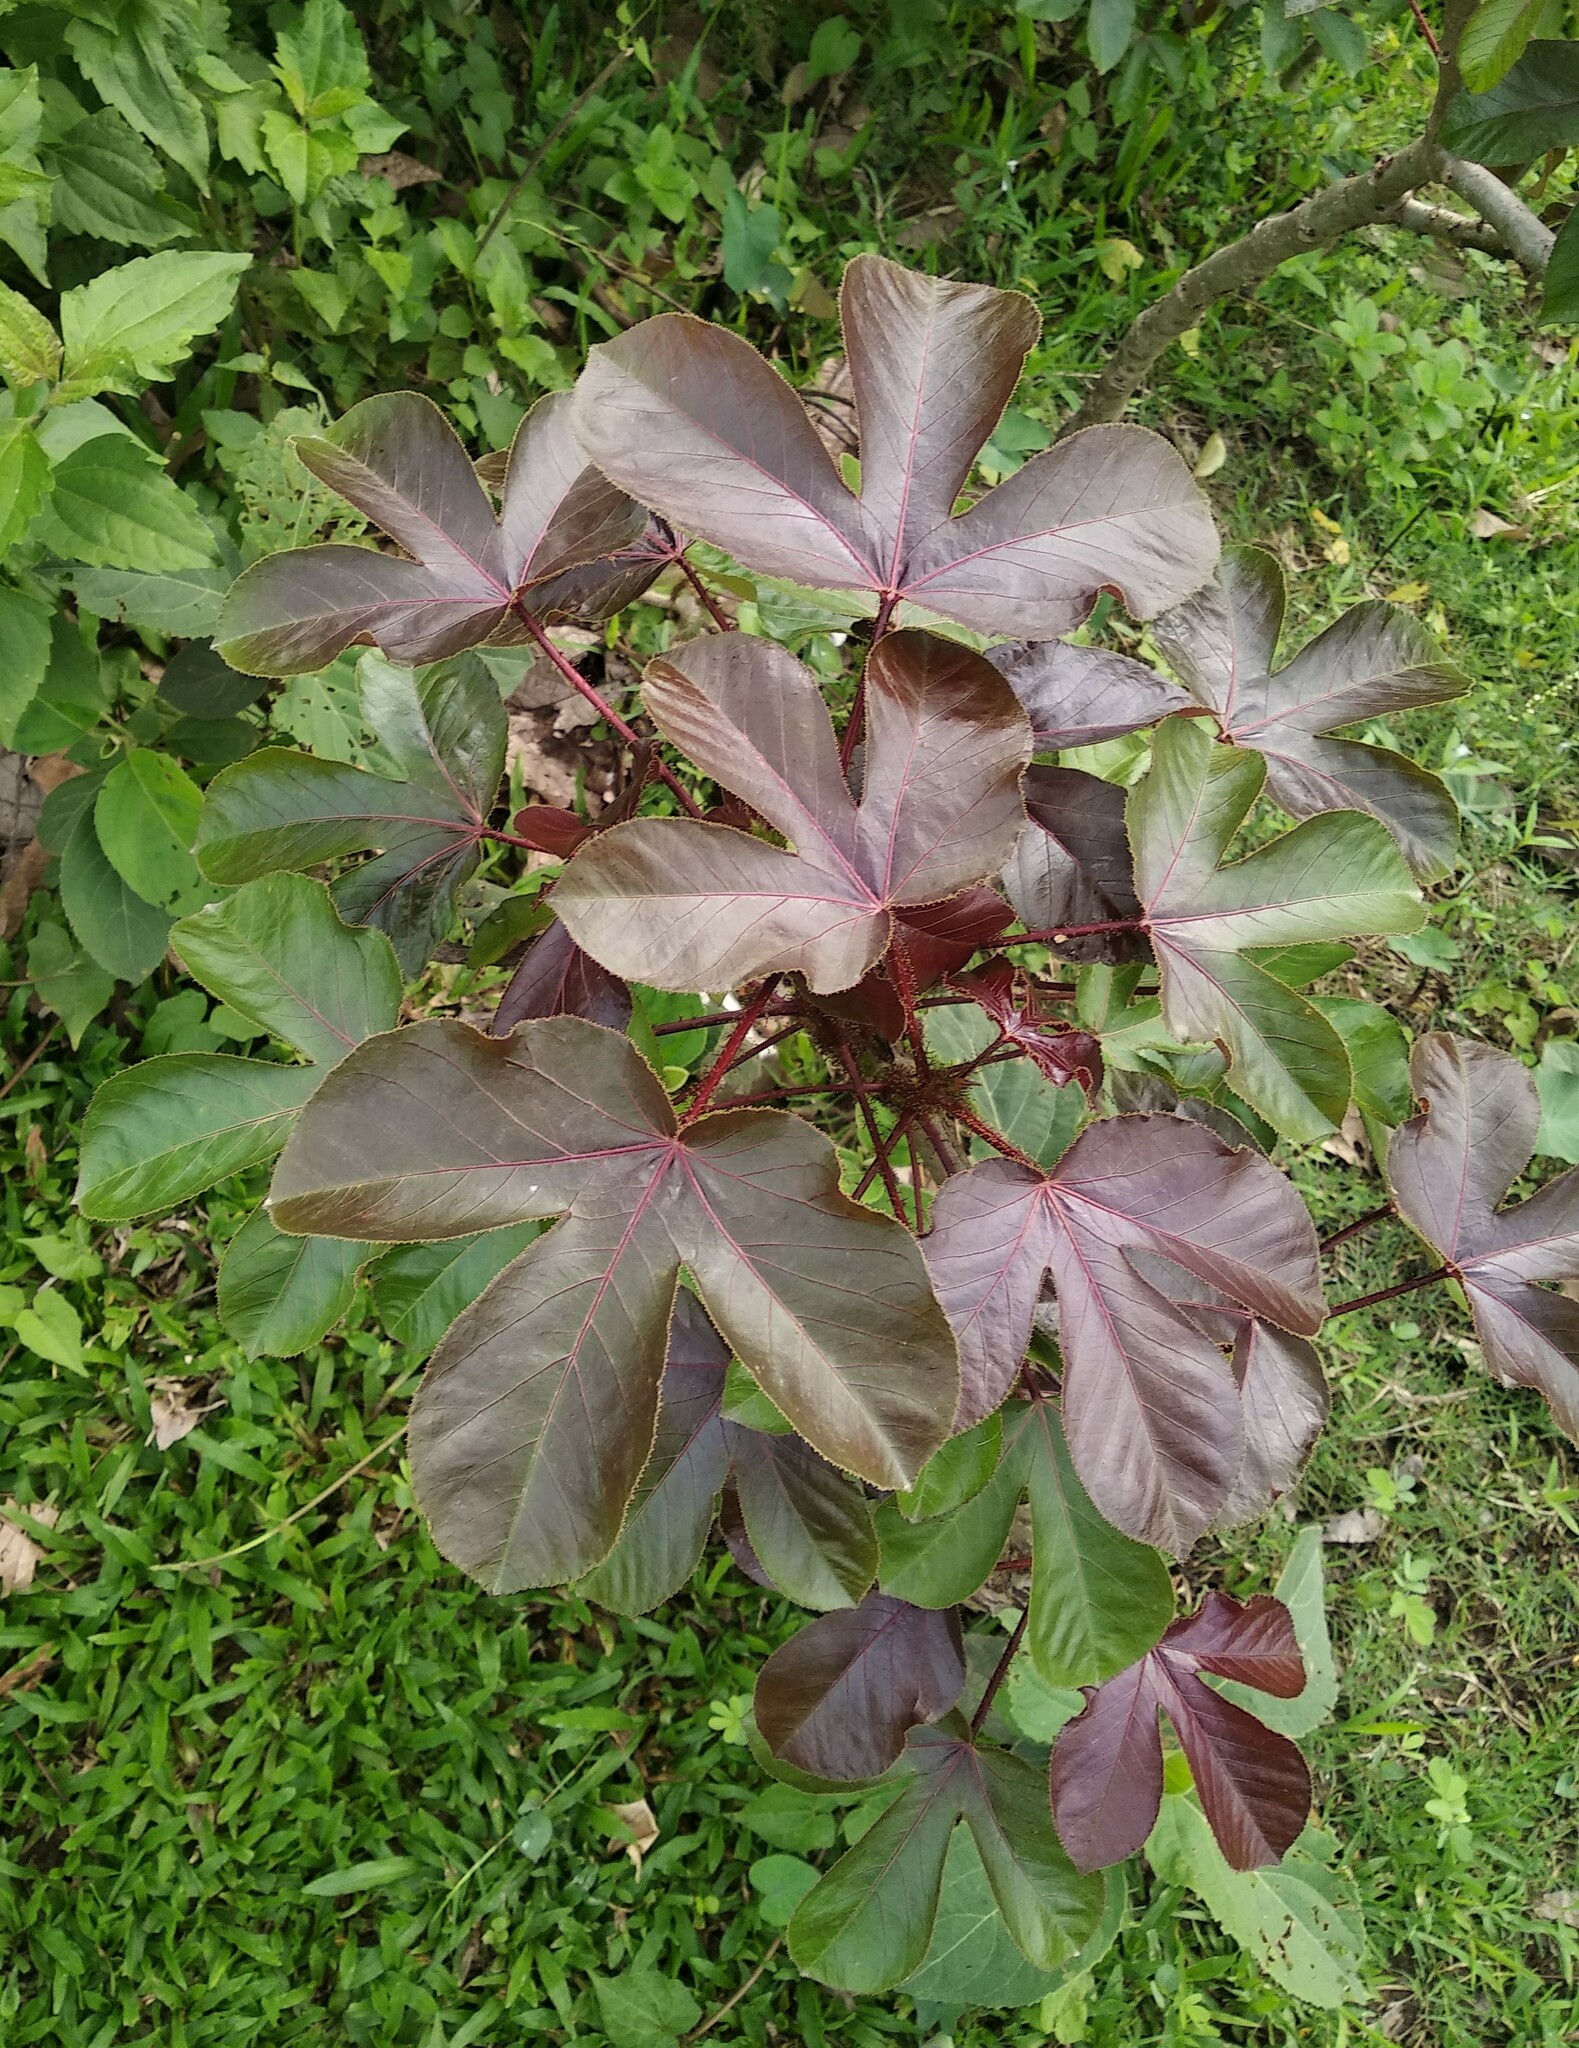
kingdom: Plantae
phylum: Tracheophyta
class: Magnoliopsida
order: Malpighiales
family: Euphorbiaceae
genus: Jatropha
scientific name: Jatropha gossypiifolia
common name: Bellyache bush
